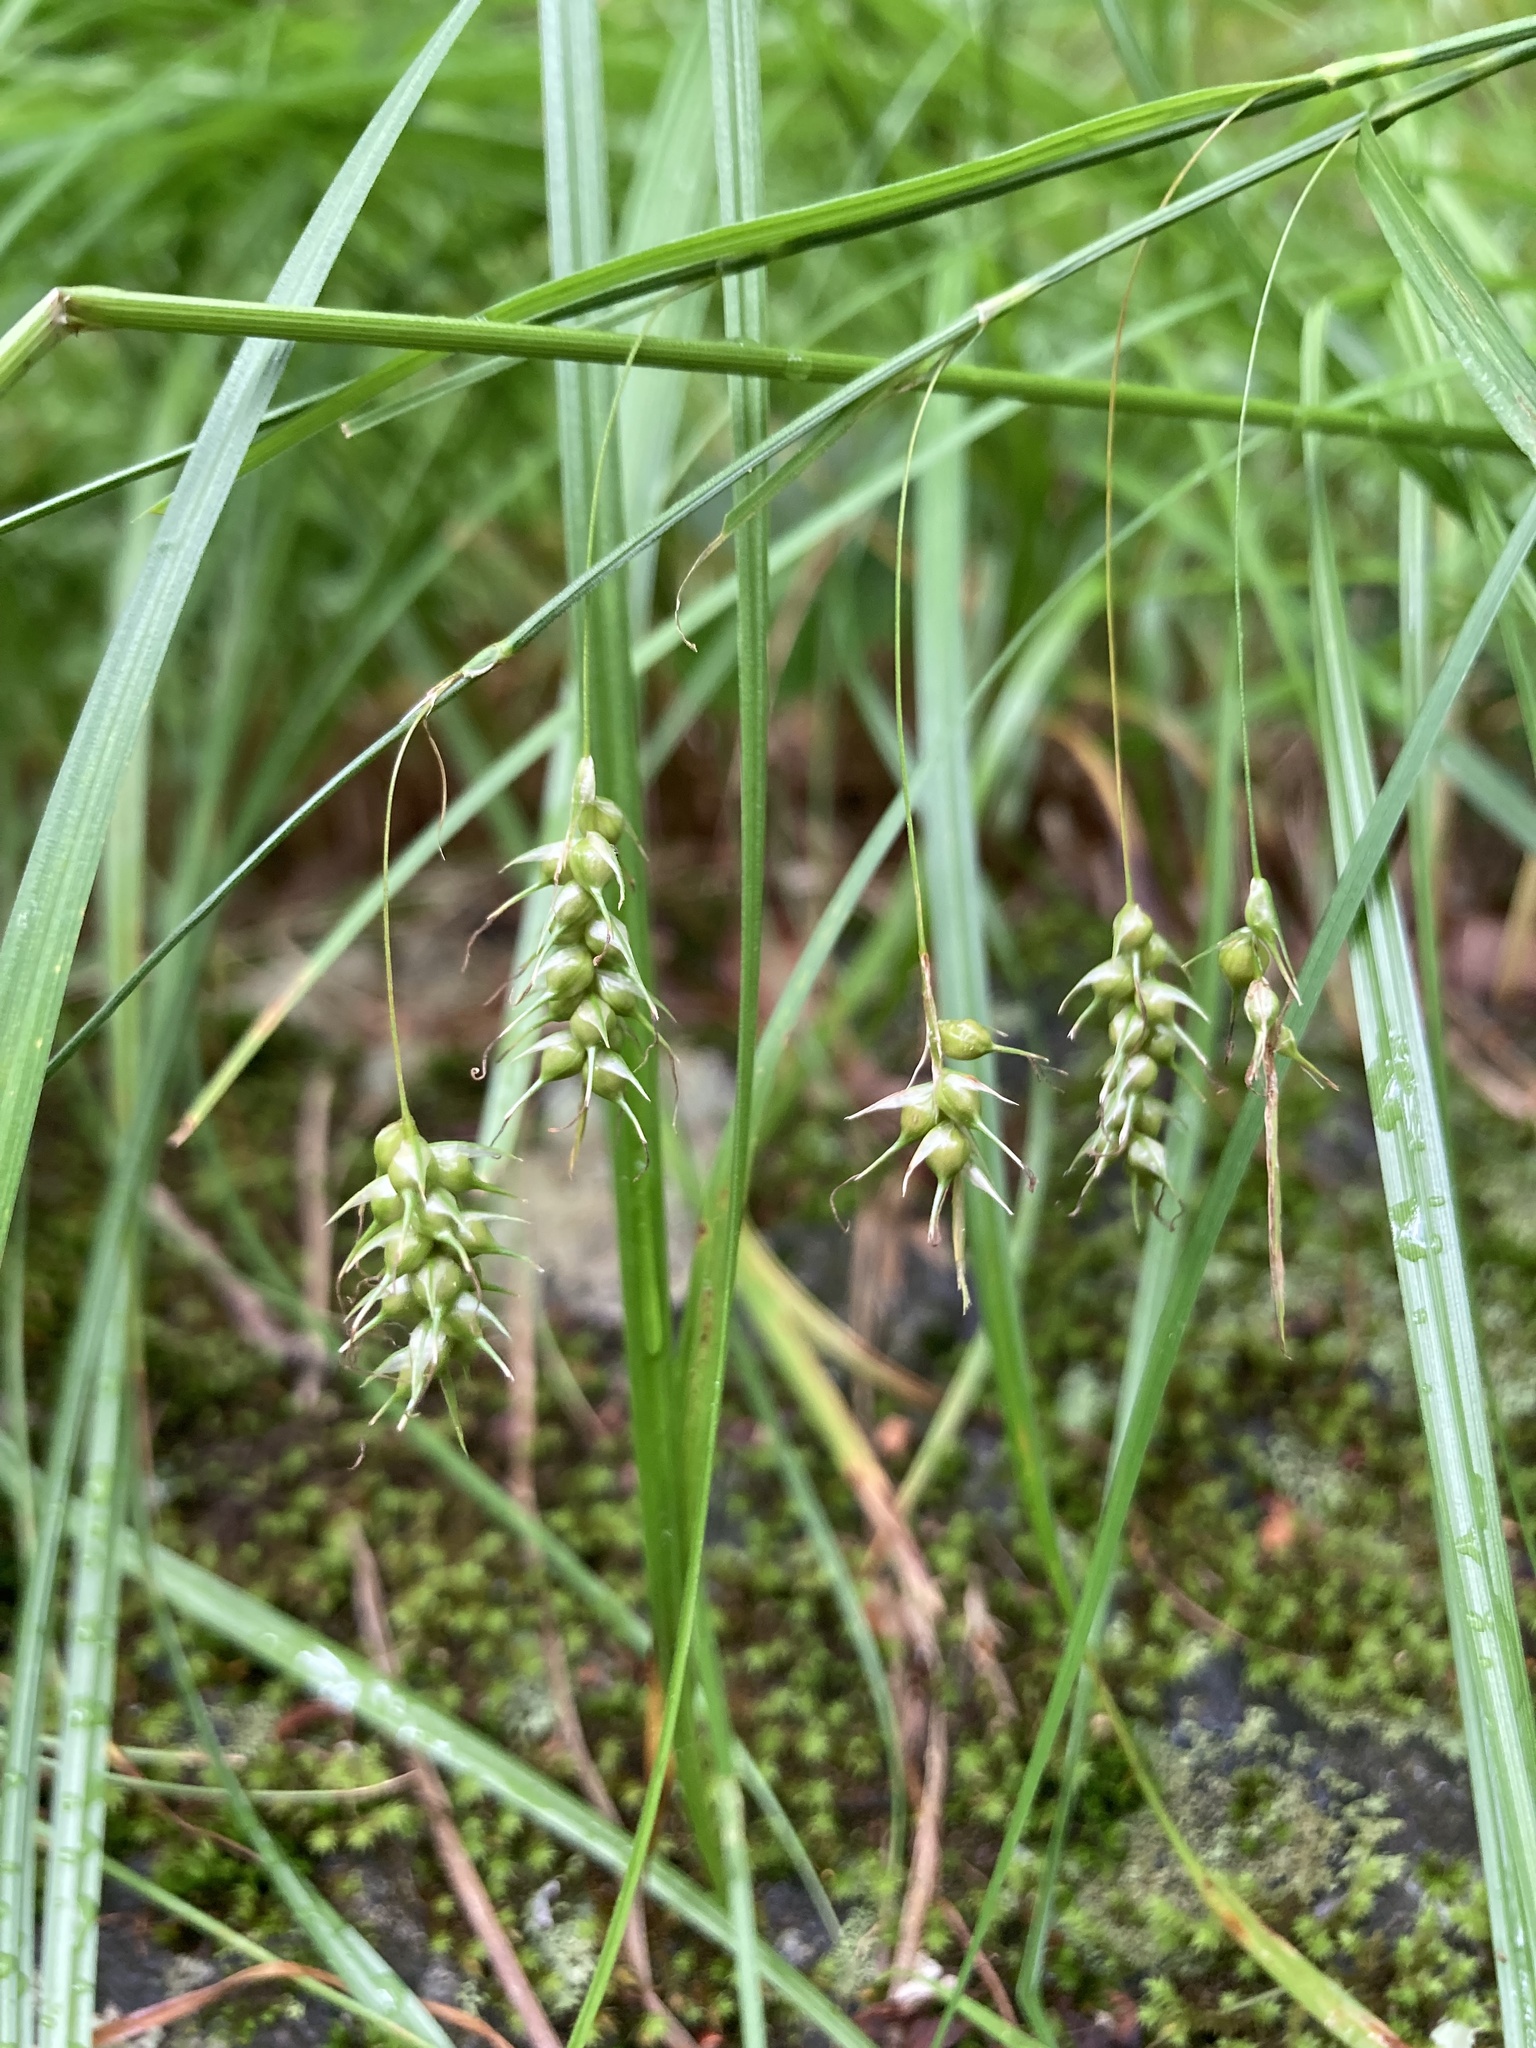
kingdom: Plantae
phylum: Tracheophyta
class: Liliopsida
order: Poales
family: Cyperaceae
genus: Carex
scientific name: Carex sprengelii
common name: Long-beaked sedge
